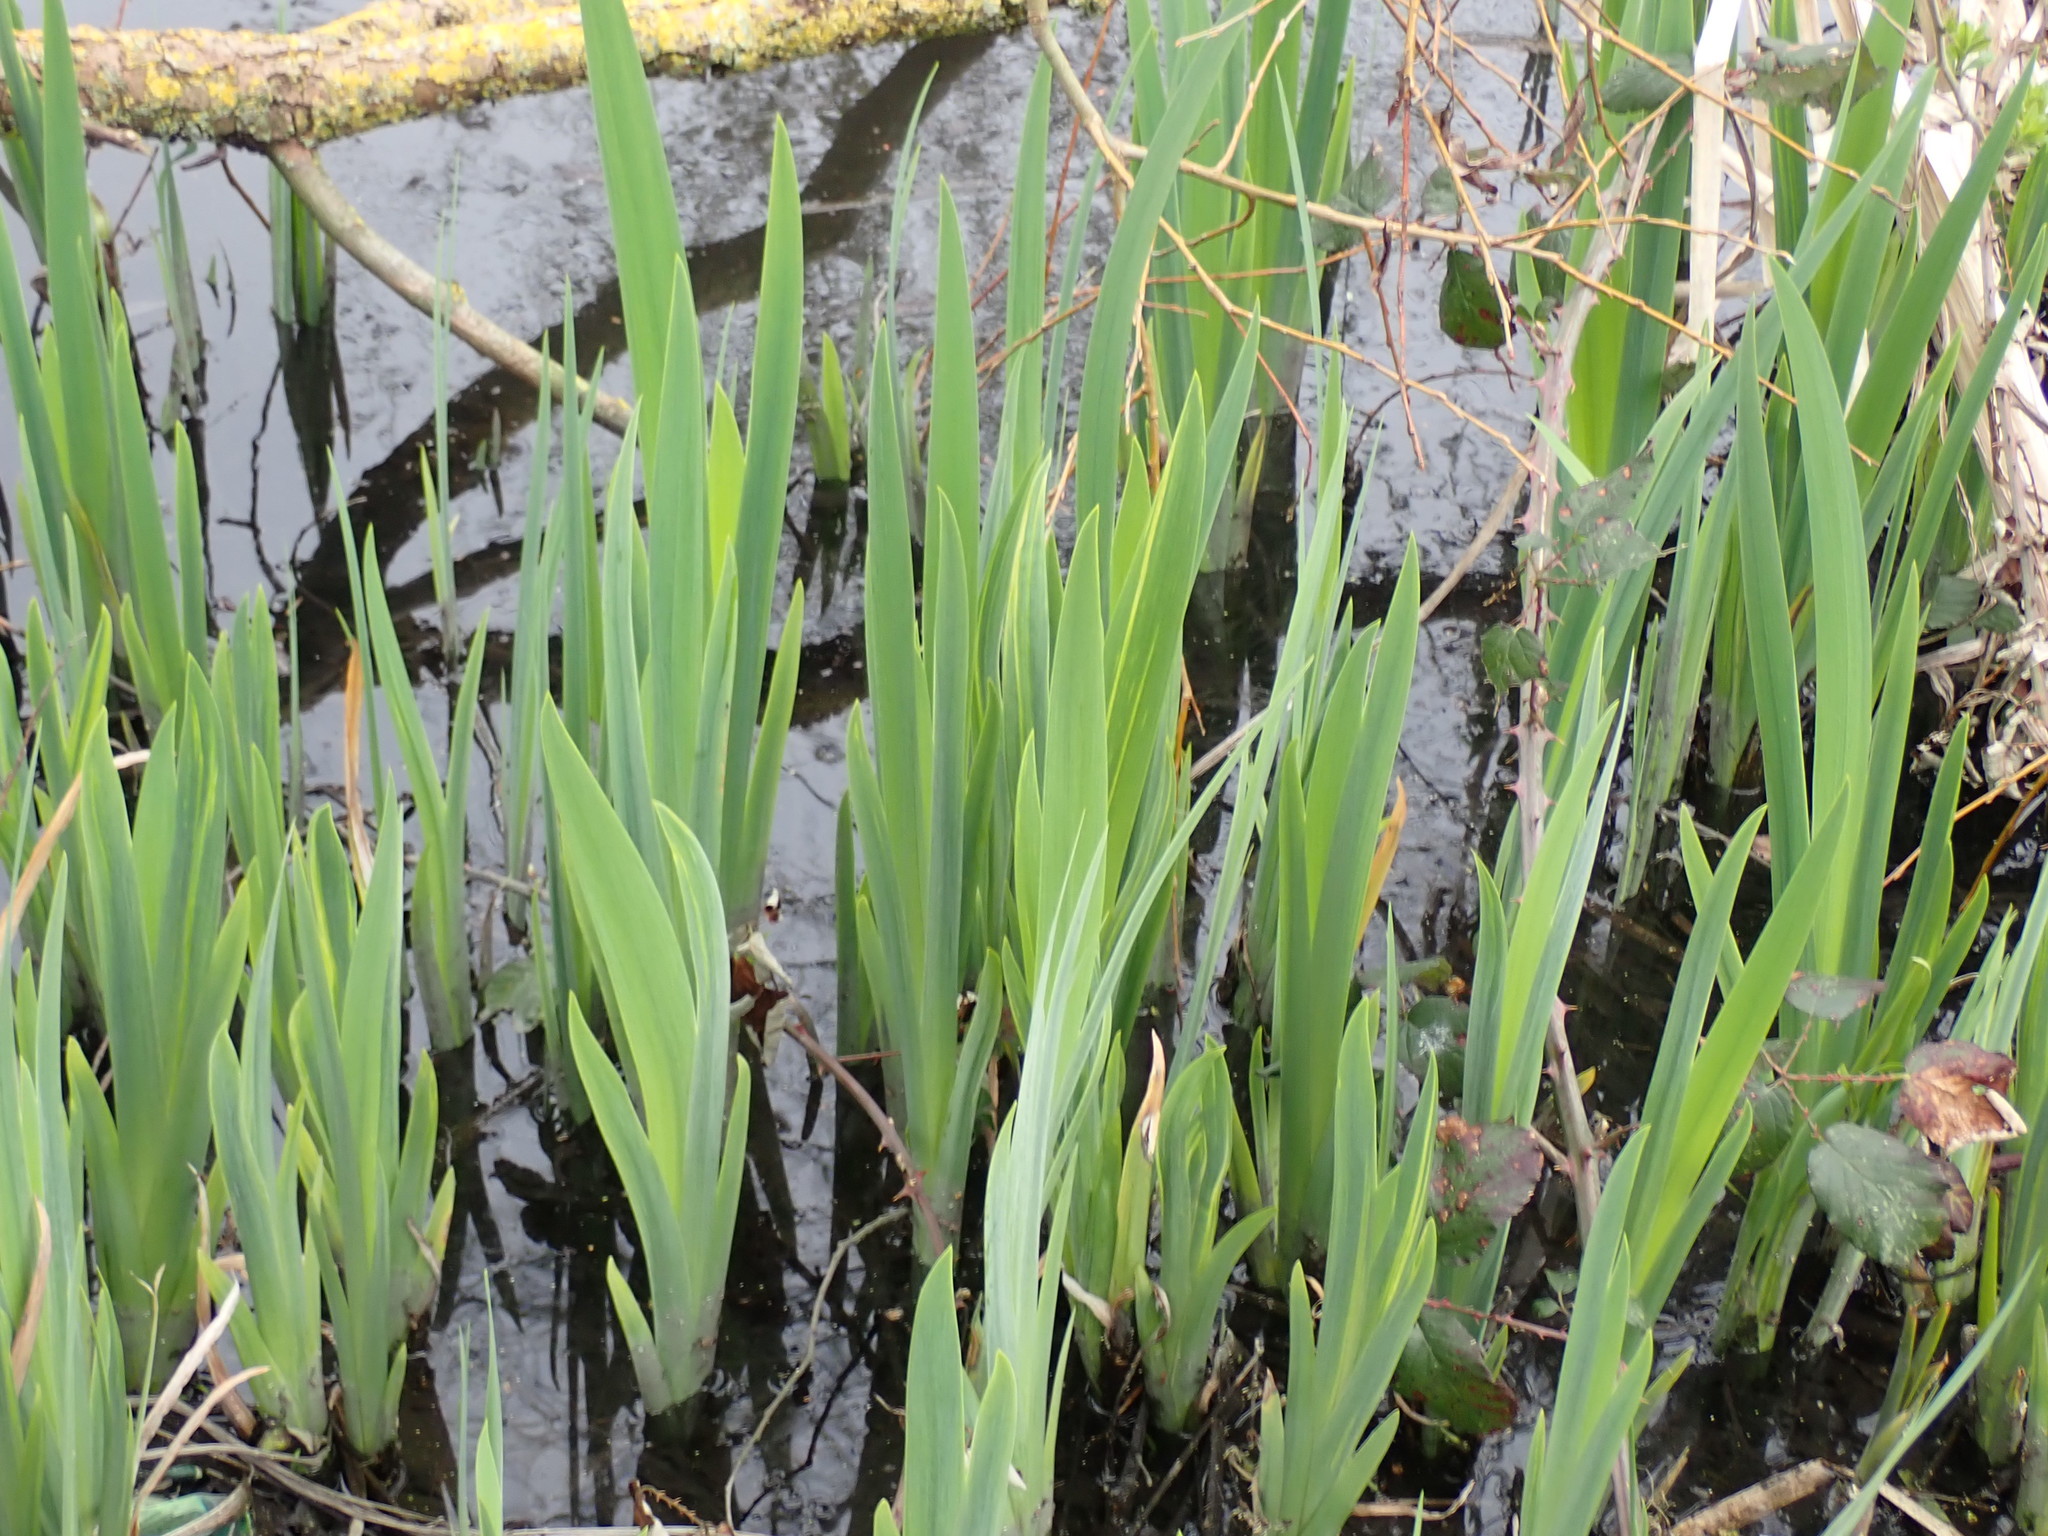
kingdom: Plantae
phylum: Tracheophyta
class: Liliopsida
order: Asparagales
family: Iridaceae
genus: Iris
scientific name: Iris pseudacorus
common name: Yellow flag
